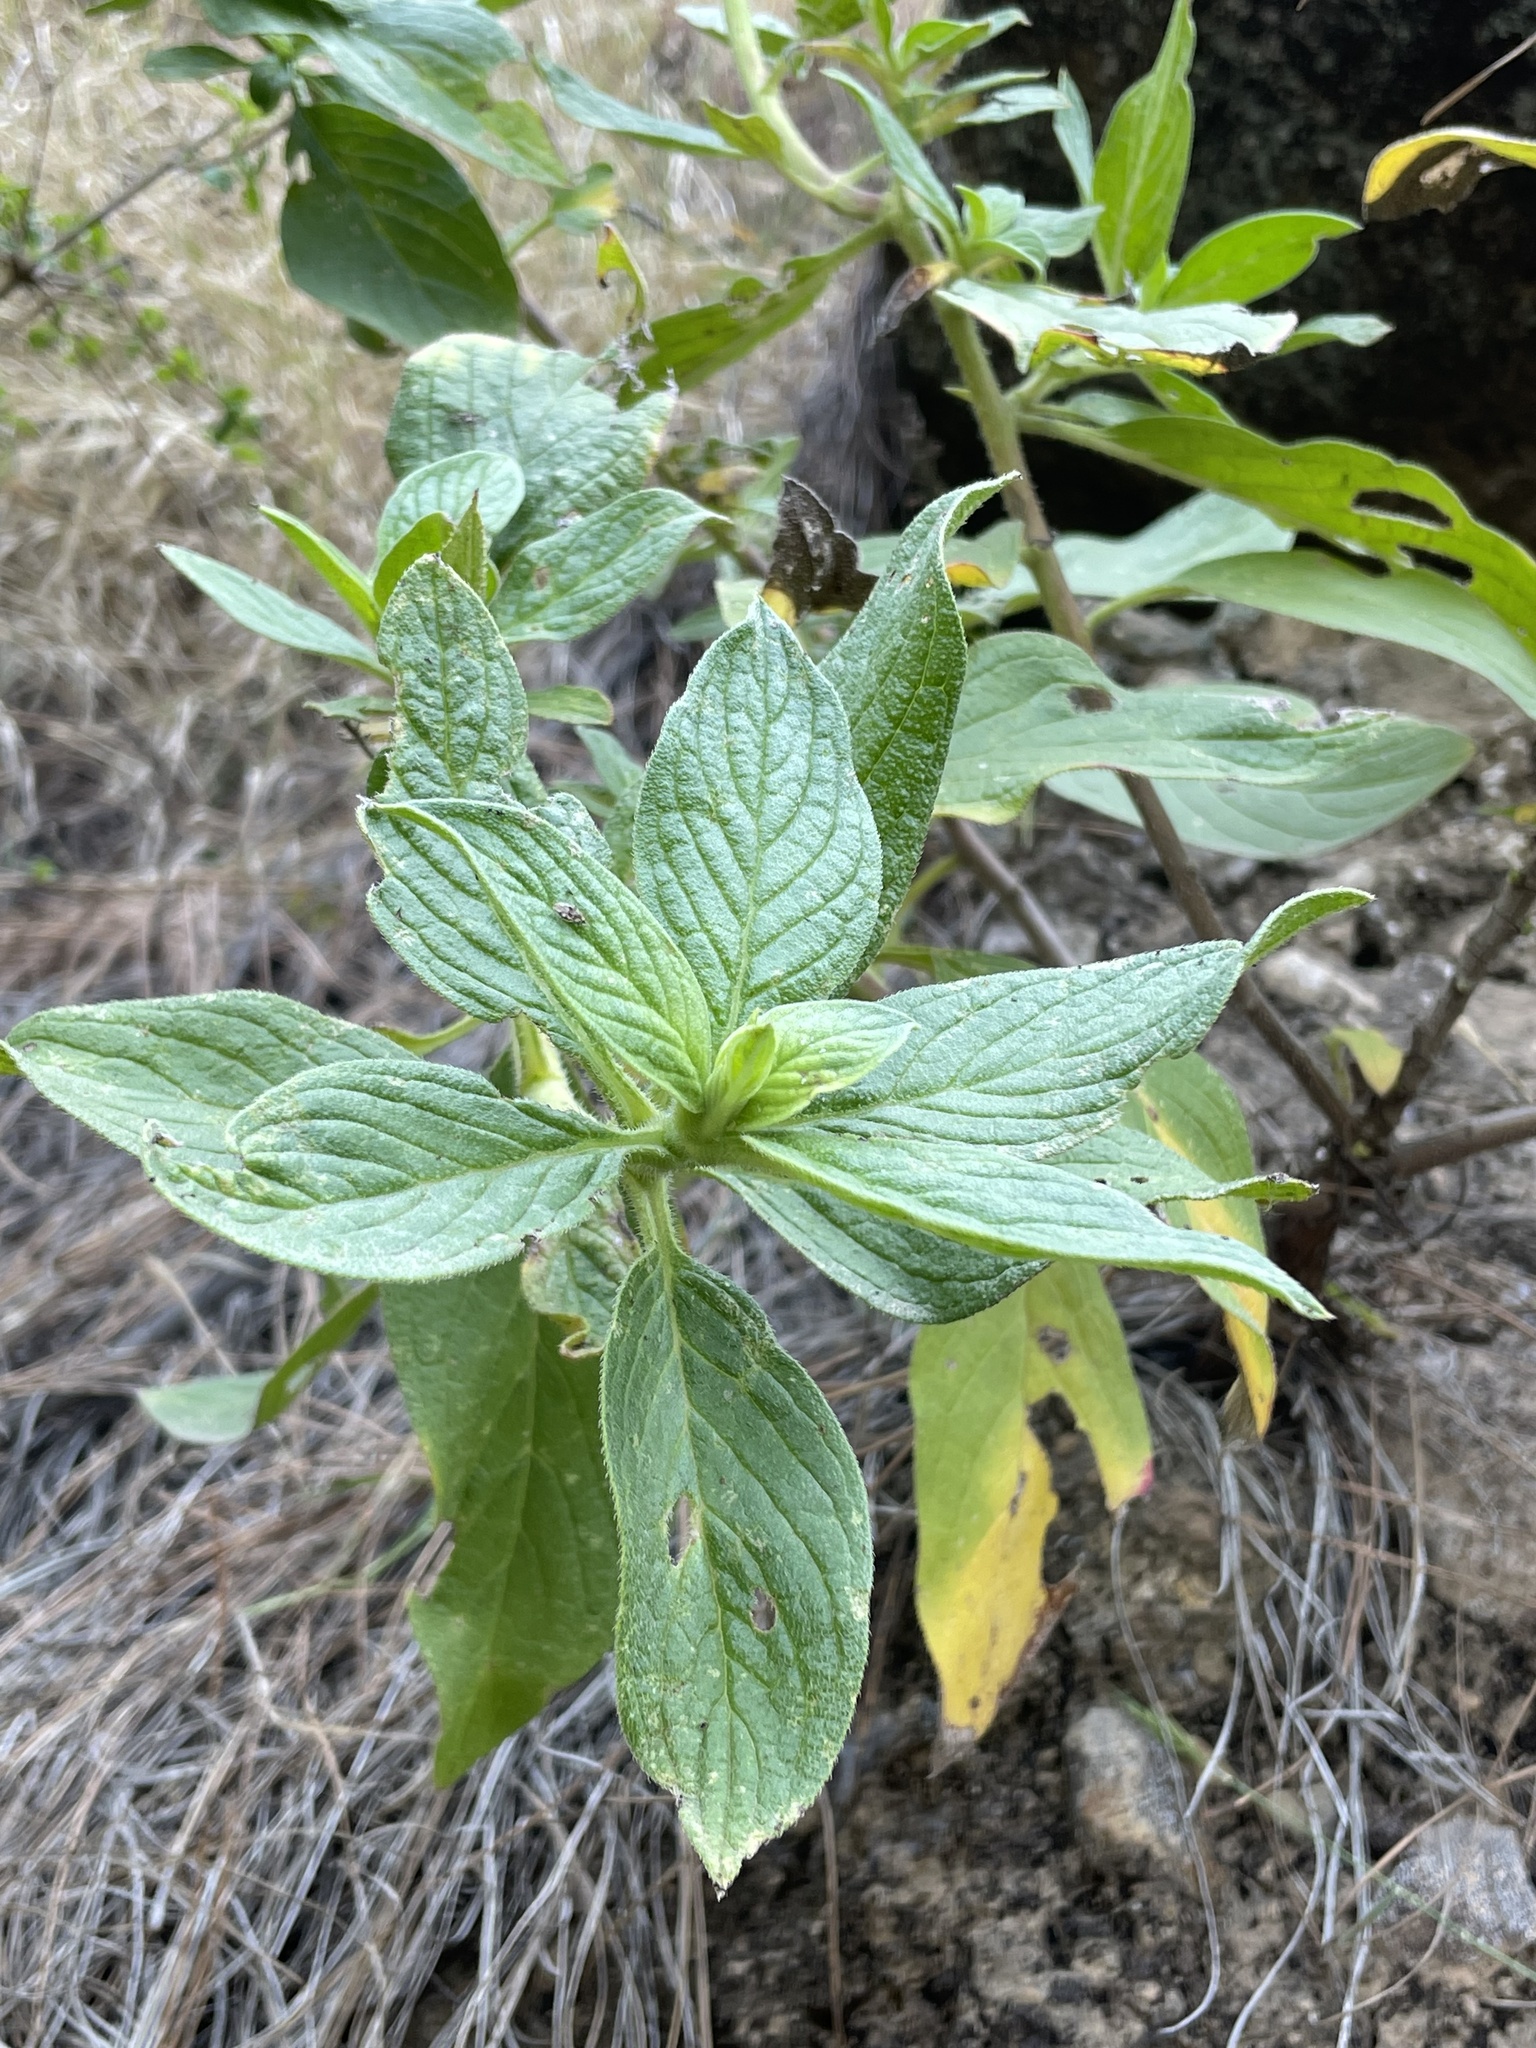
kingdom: Plantae
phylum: Tracheophyta
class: Magnoliopsida
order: Boraginales
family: Boraginaceae
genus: Echium
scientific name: Echium stenosiphon
